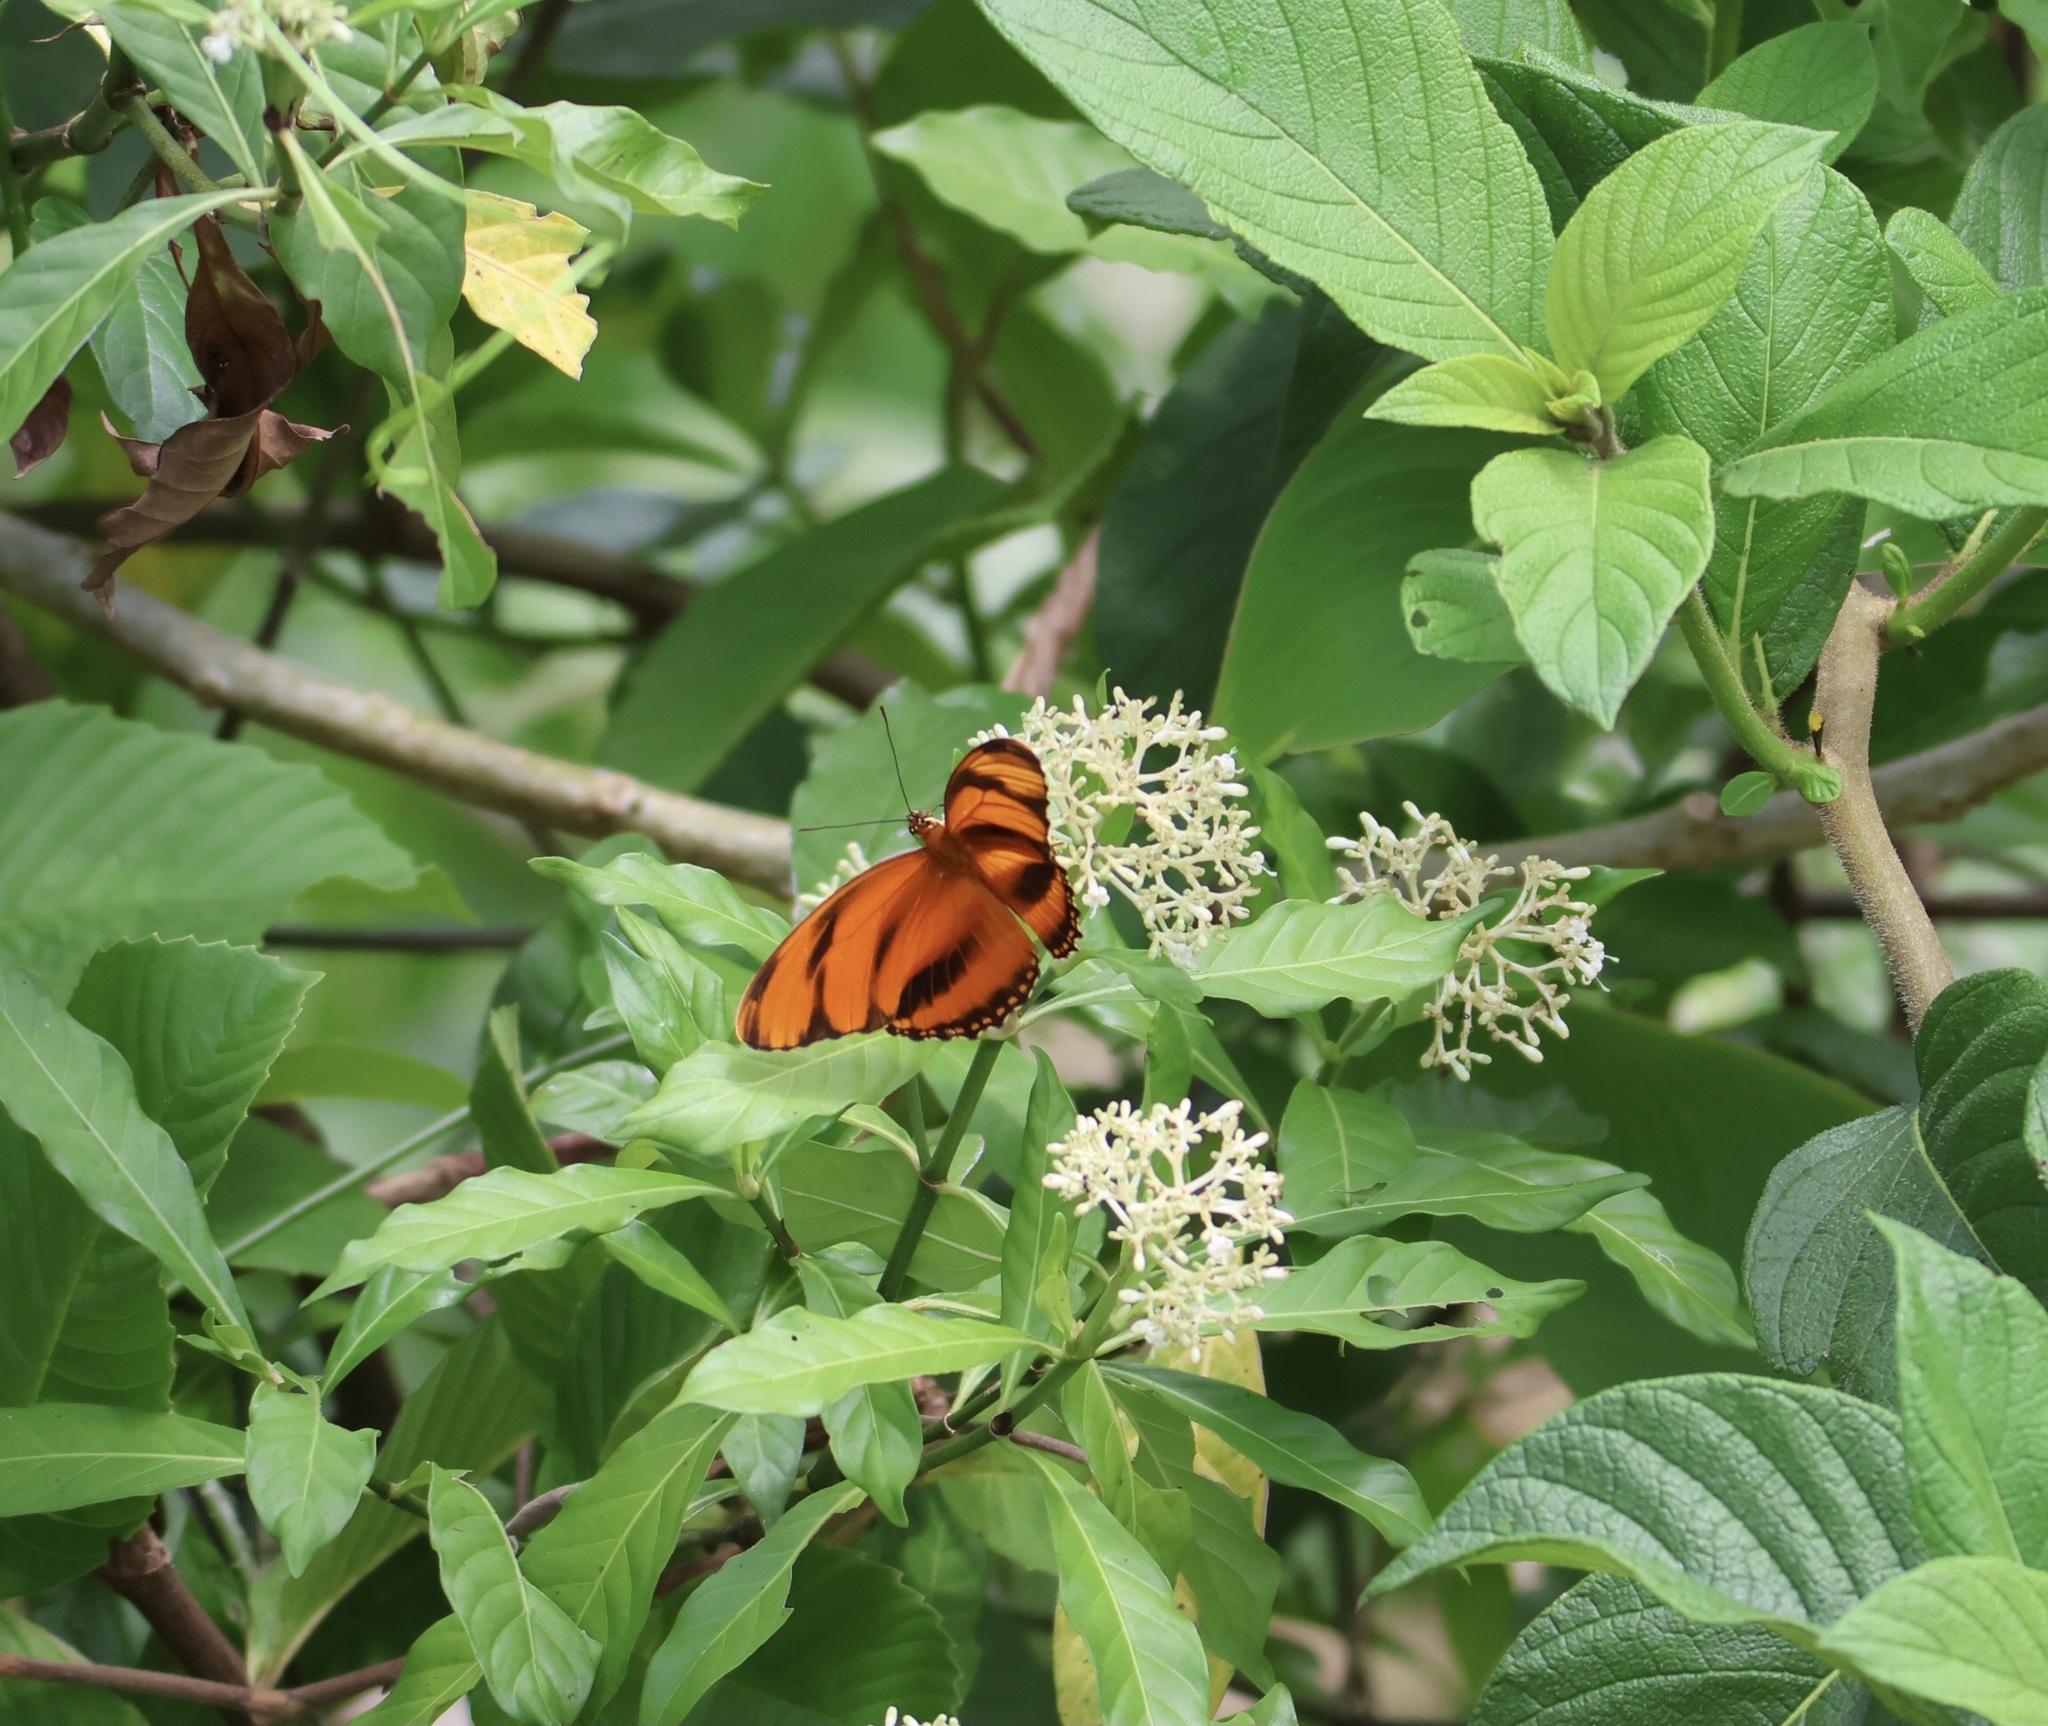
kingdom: Animalia
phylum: Arthropoda
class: Insecta
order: Lepidoptera
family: Nymphalidae
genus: Dryadula
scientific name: Dryadula phaetusa
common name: Banded orange heliconian
